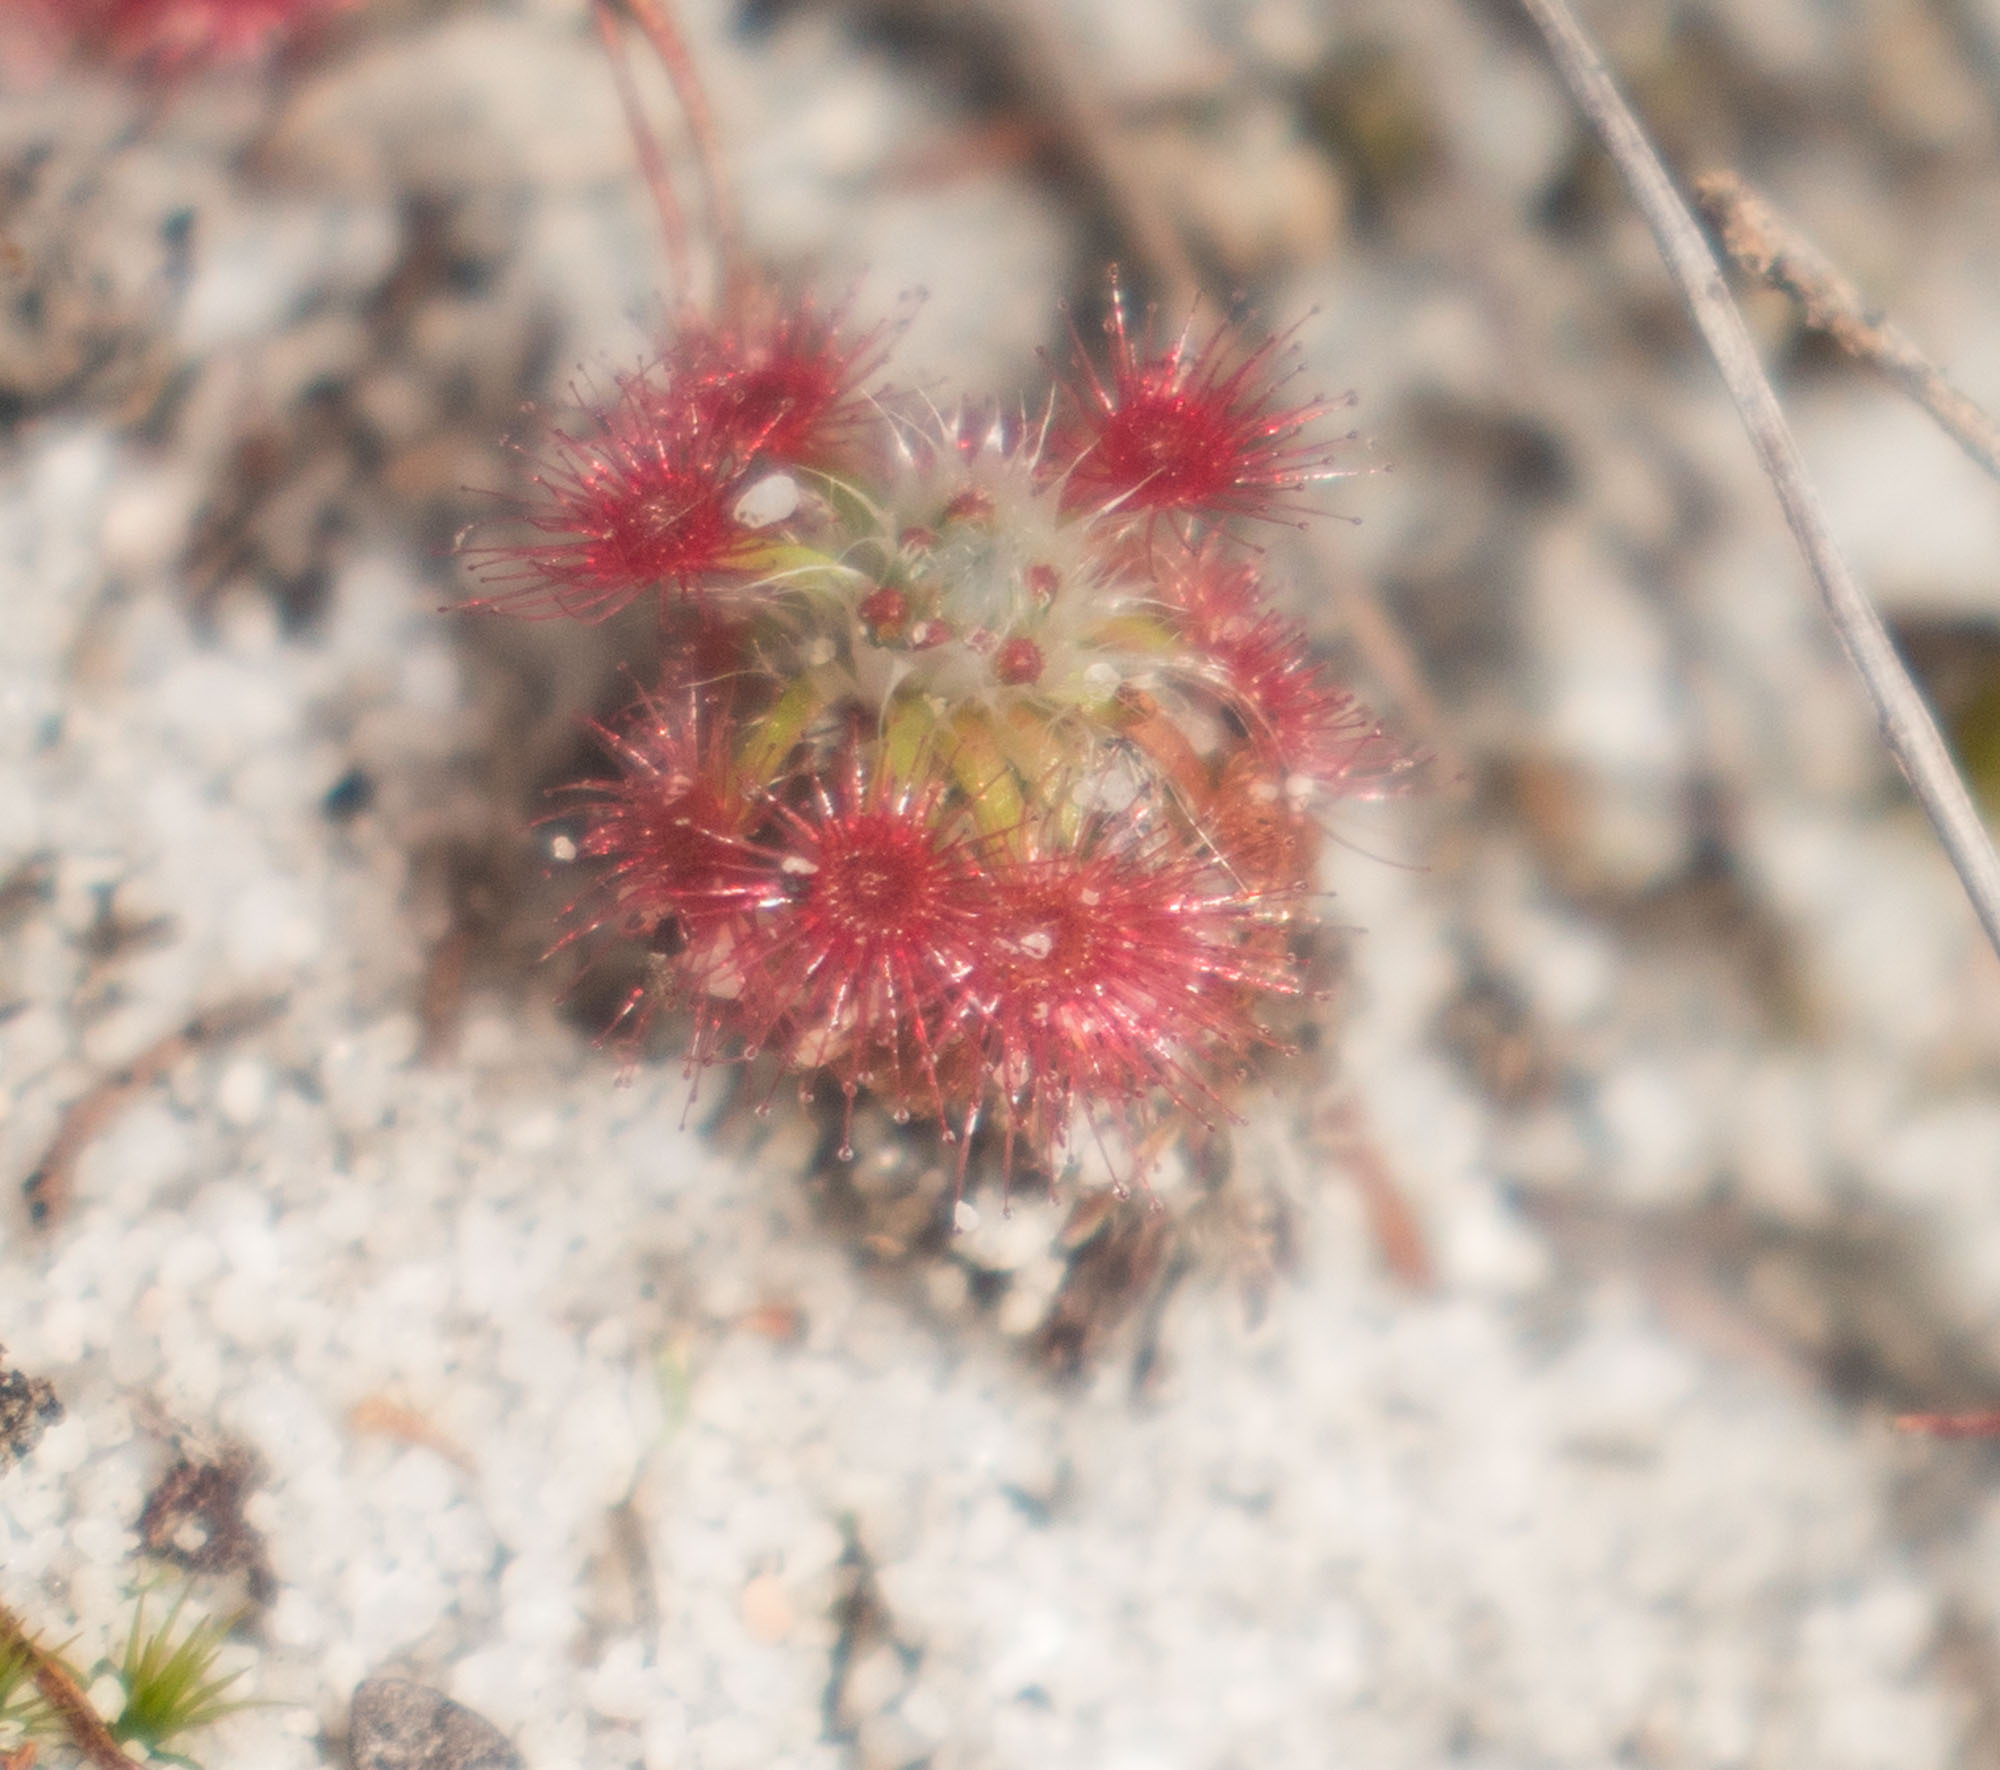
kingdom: Plantae
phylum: Tracheophyta
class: Magnoliopsida
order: Caryophyllales
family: Droseraceae
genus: Drosera
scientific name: Drosera paleacea
